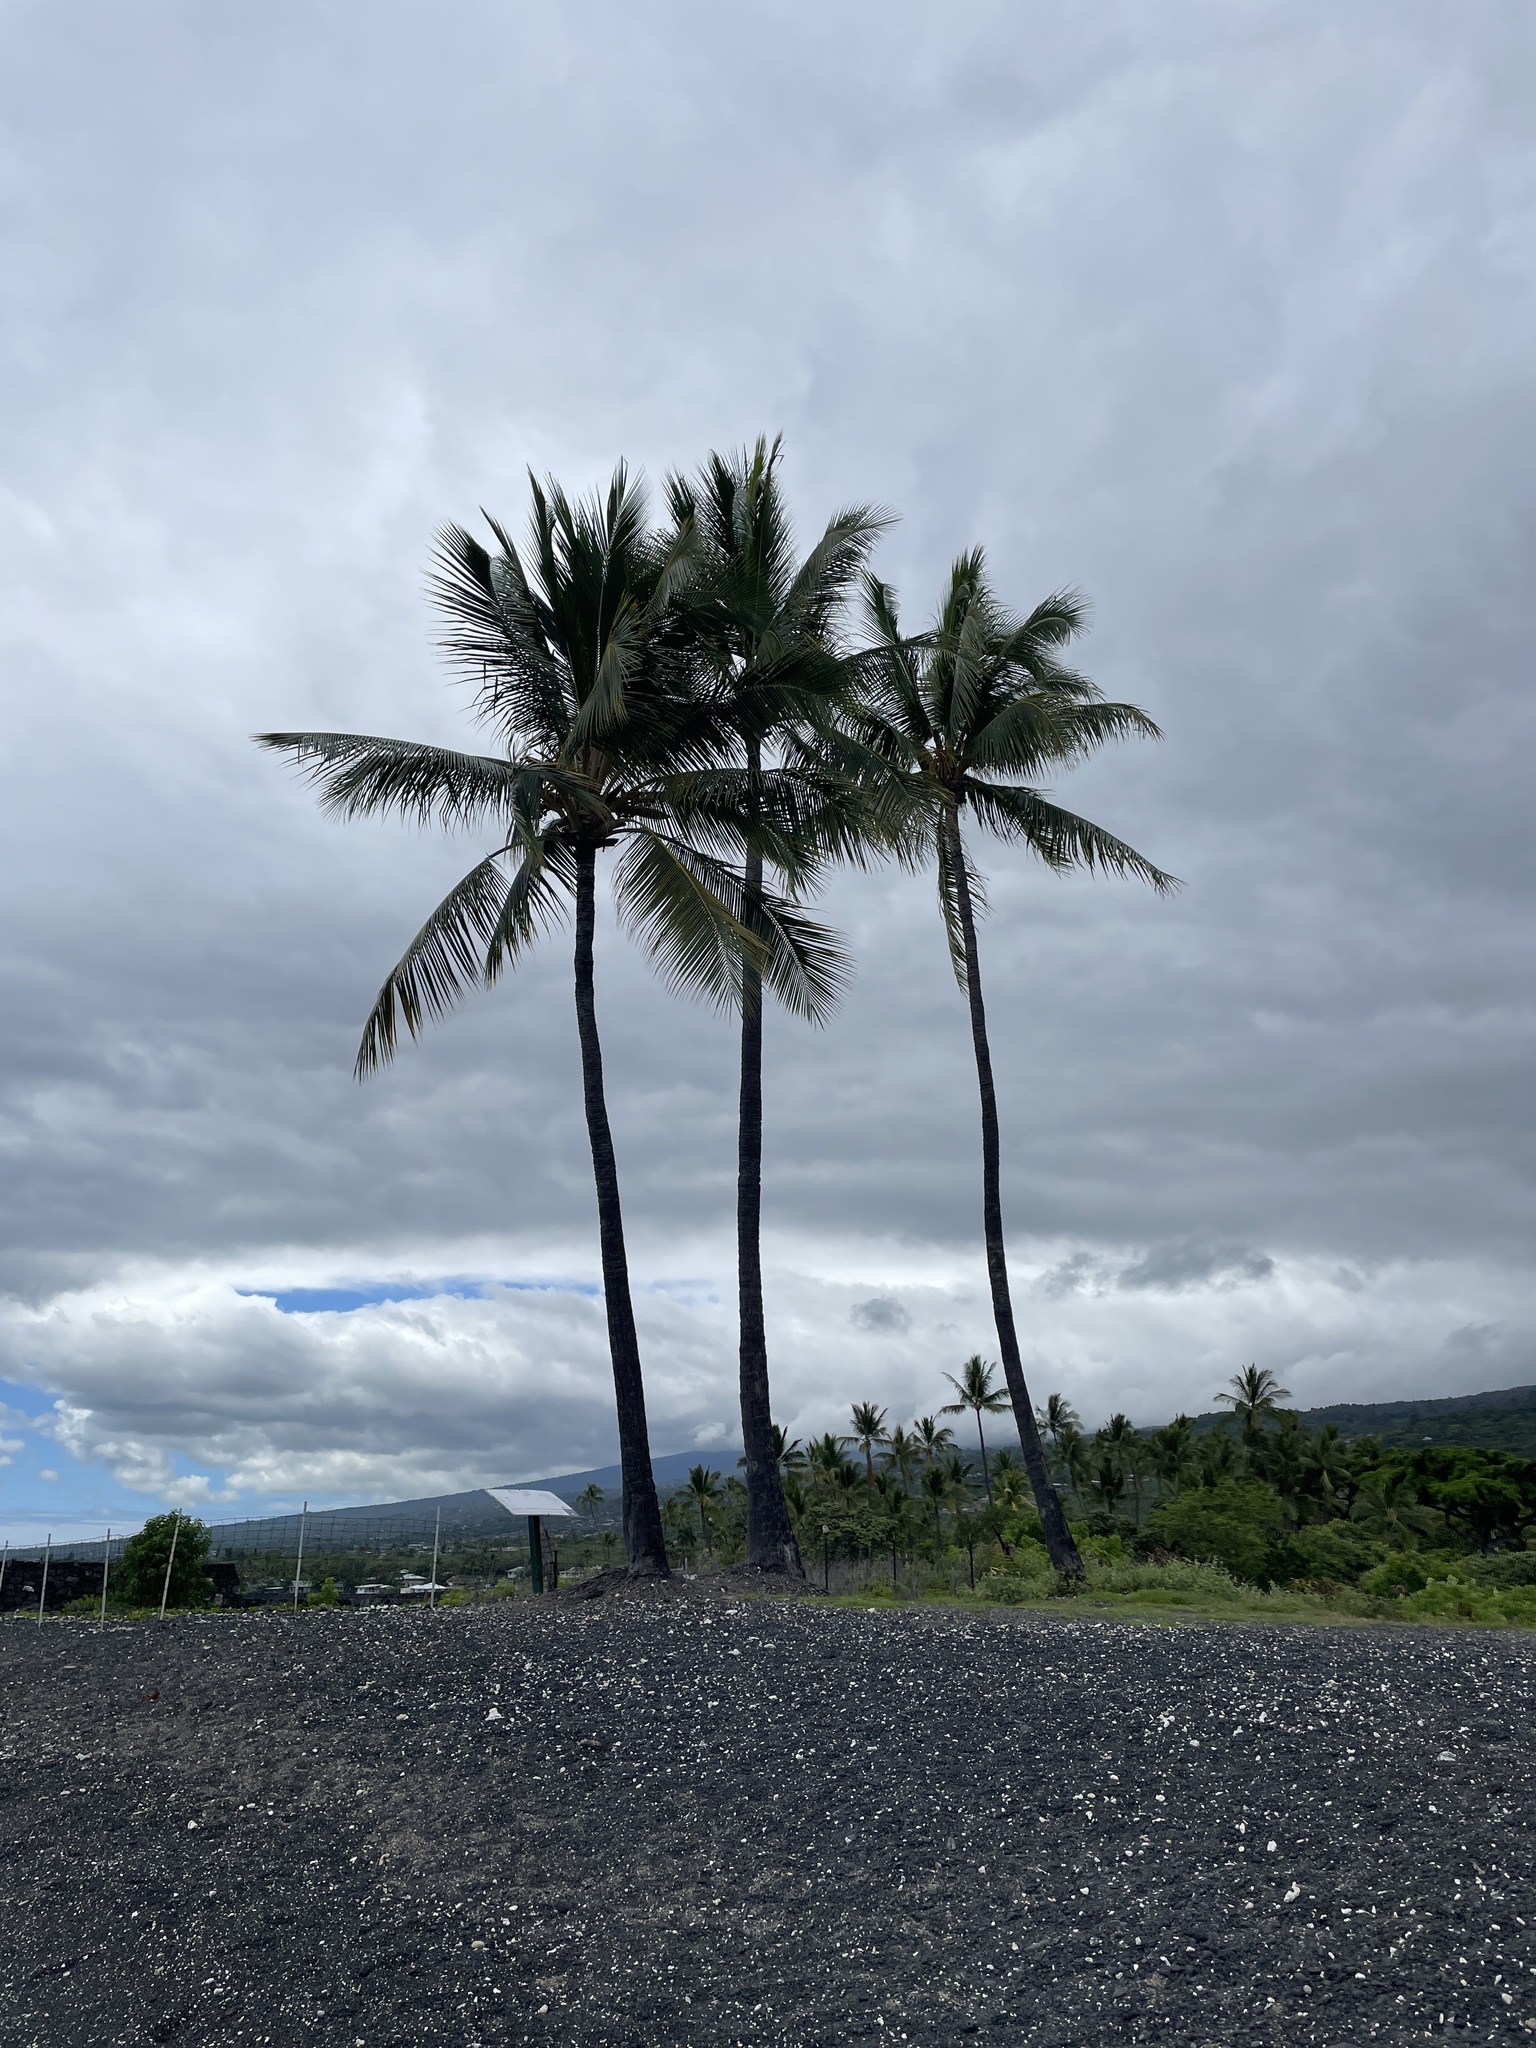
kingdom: Plantae
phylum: Tracheophyta
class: Liliopsida
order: Arecales
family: Arecaceae
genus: Cocos
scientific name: Cocos nucifera
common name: Coconut palm
